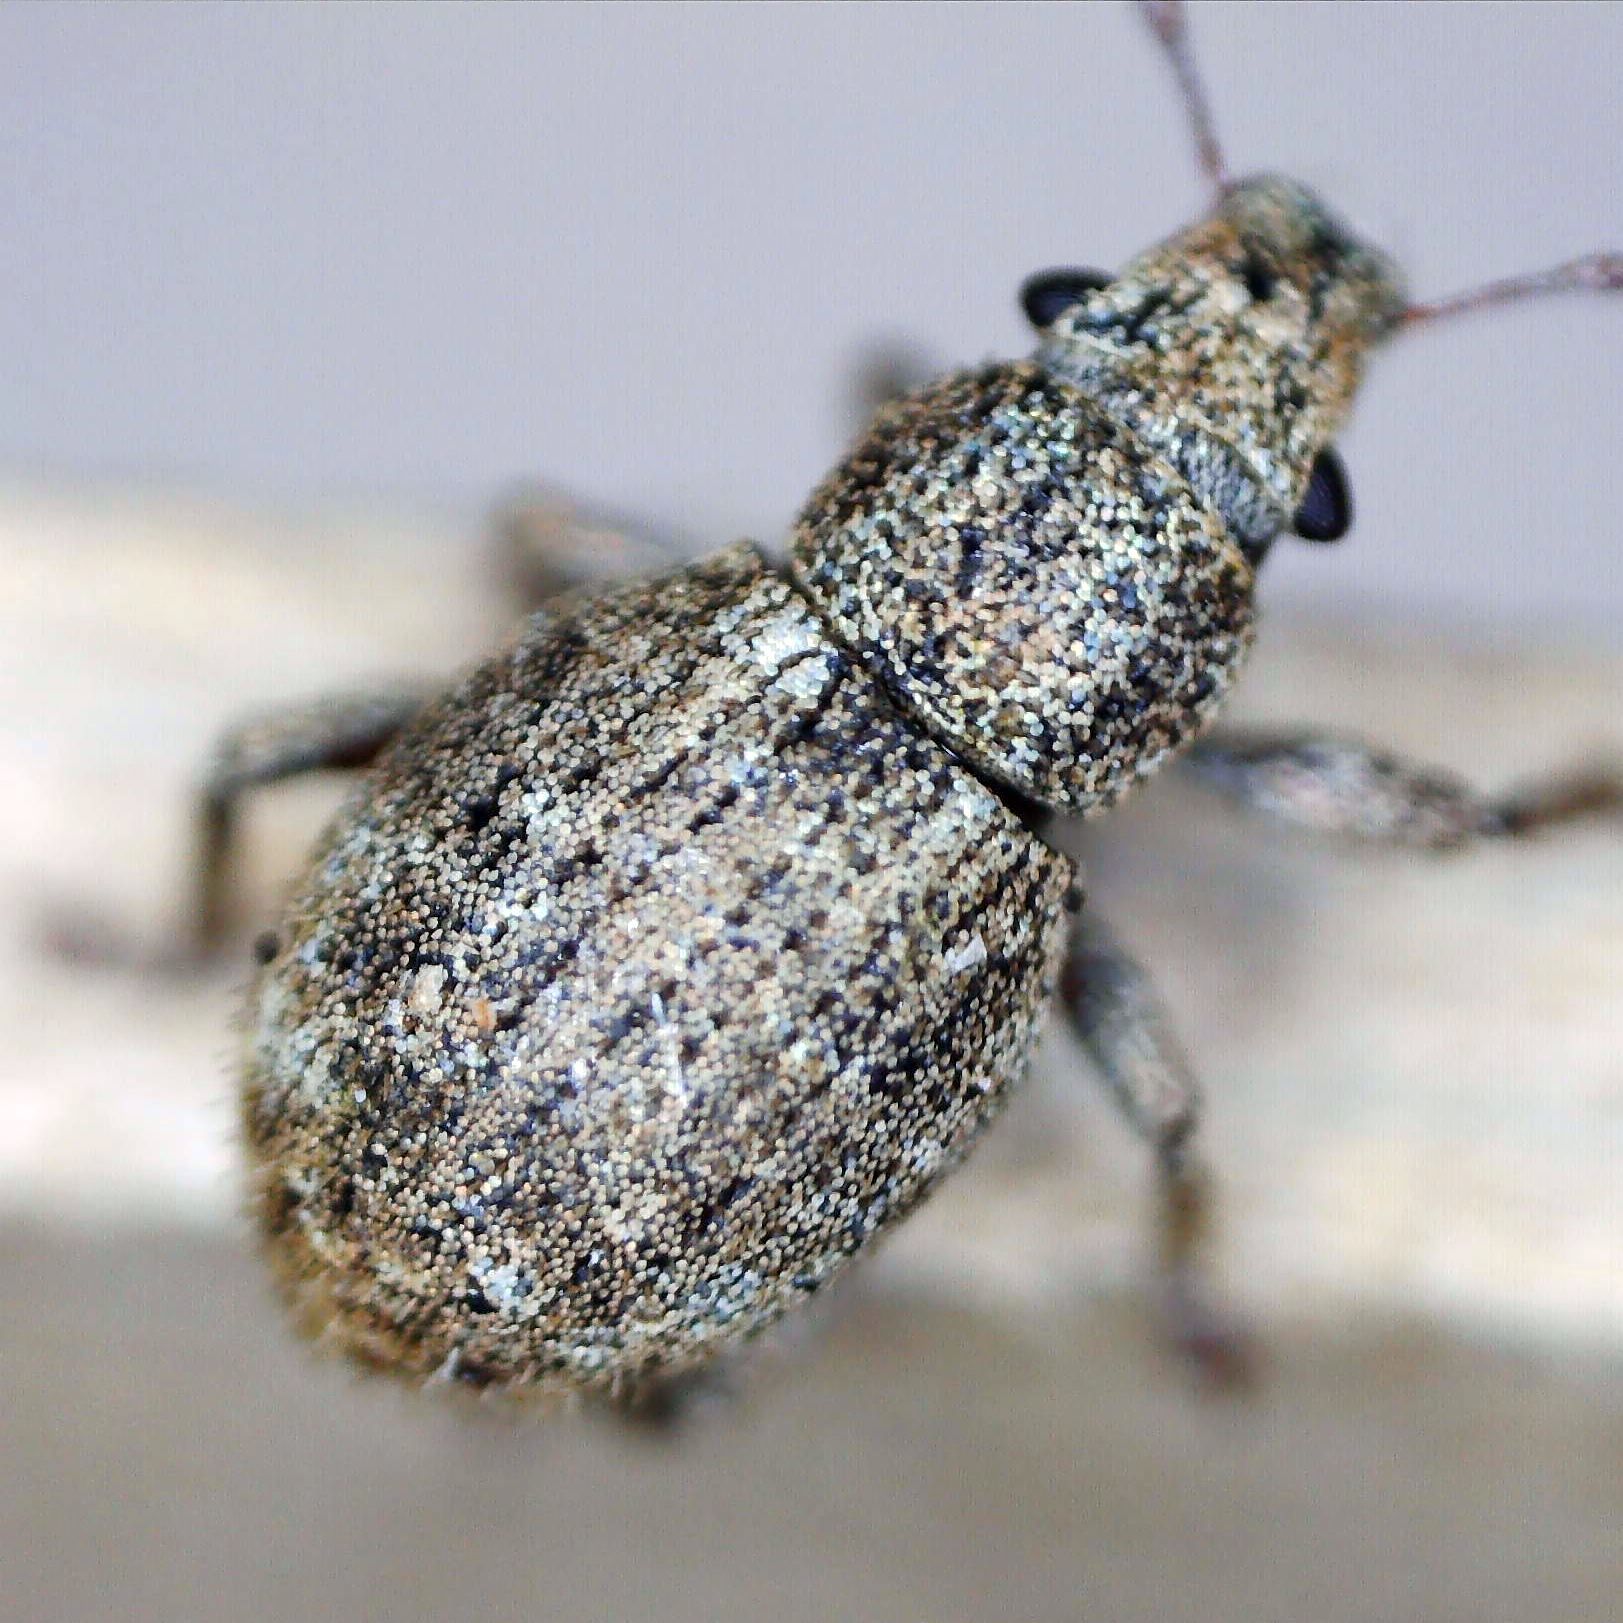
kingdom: Animalia
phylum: Arthropoda
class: Insecta
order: Coleoptera
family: Curculionidae
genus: Strophosoma
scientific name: Strophosoma capitatum
